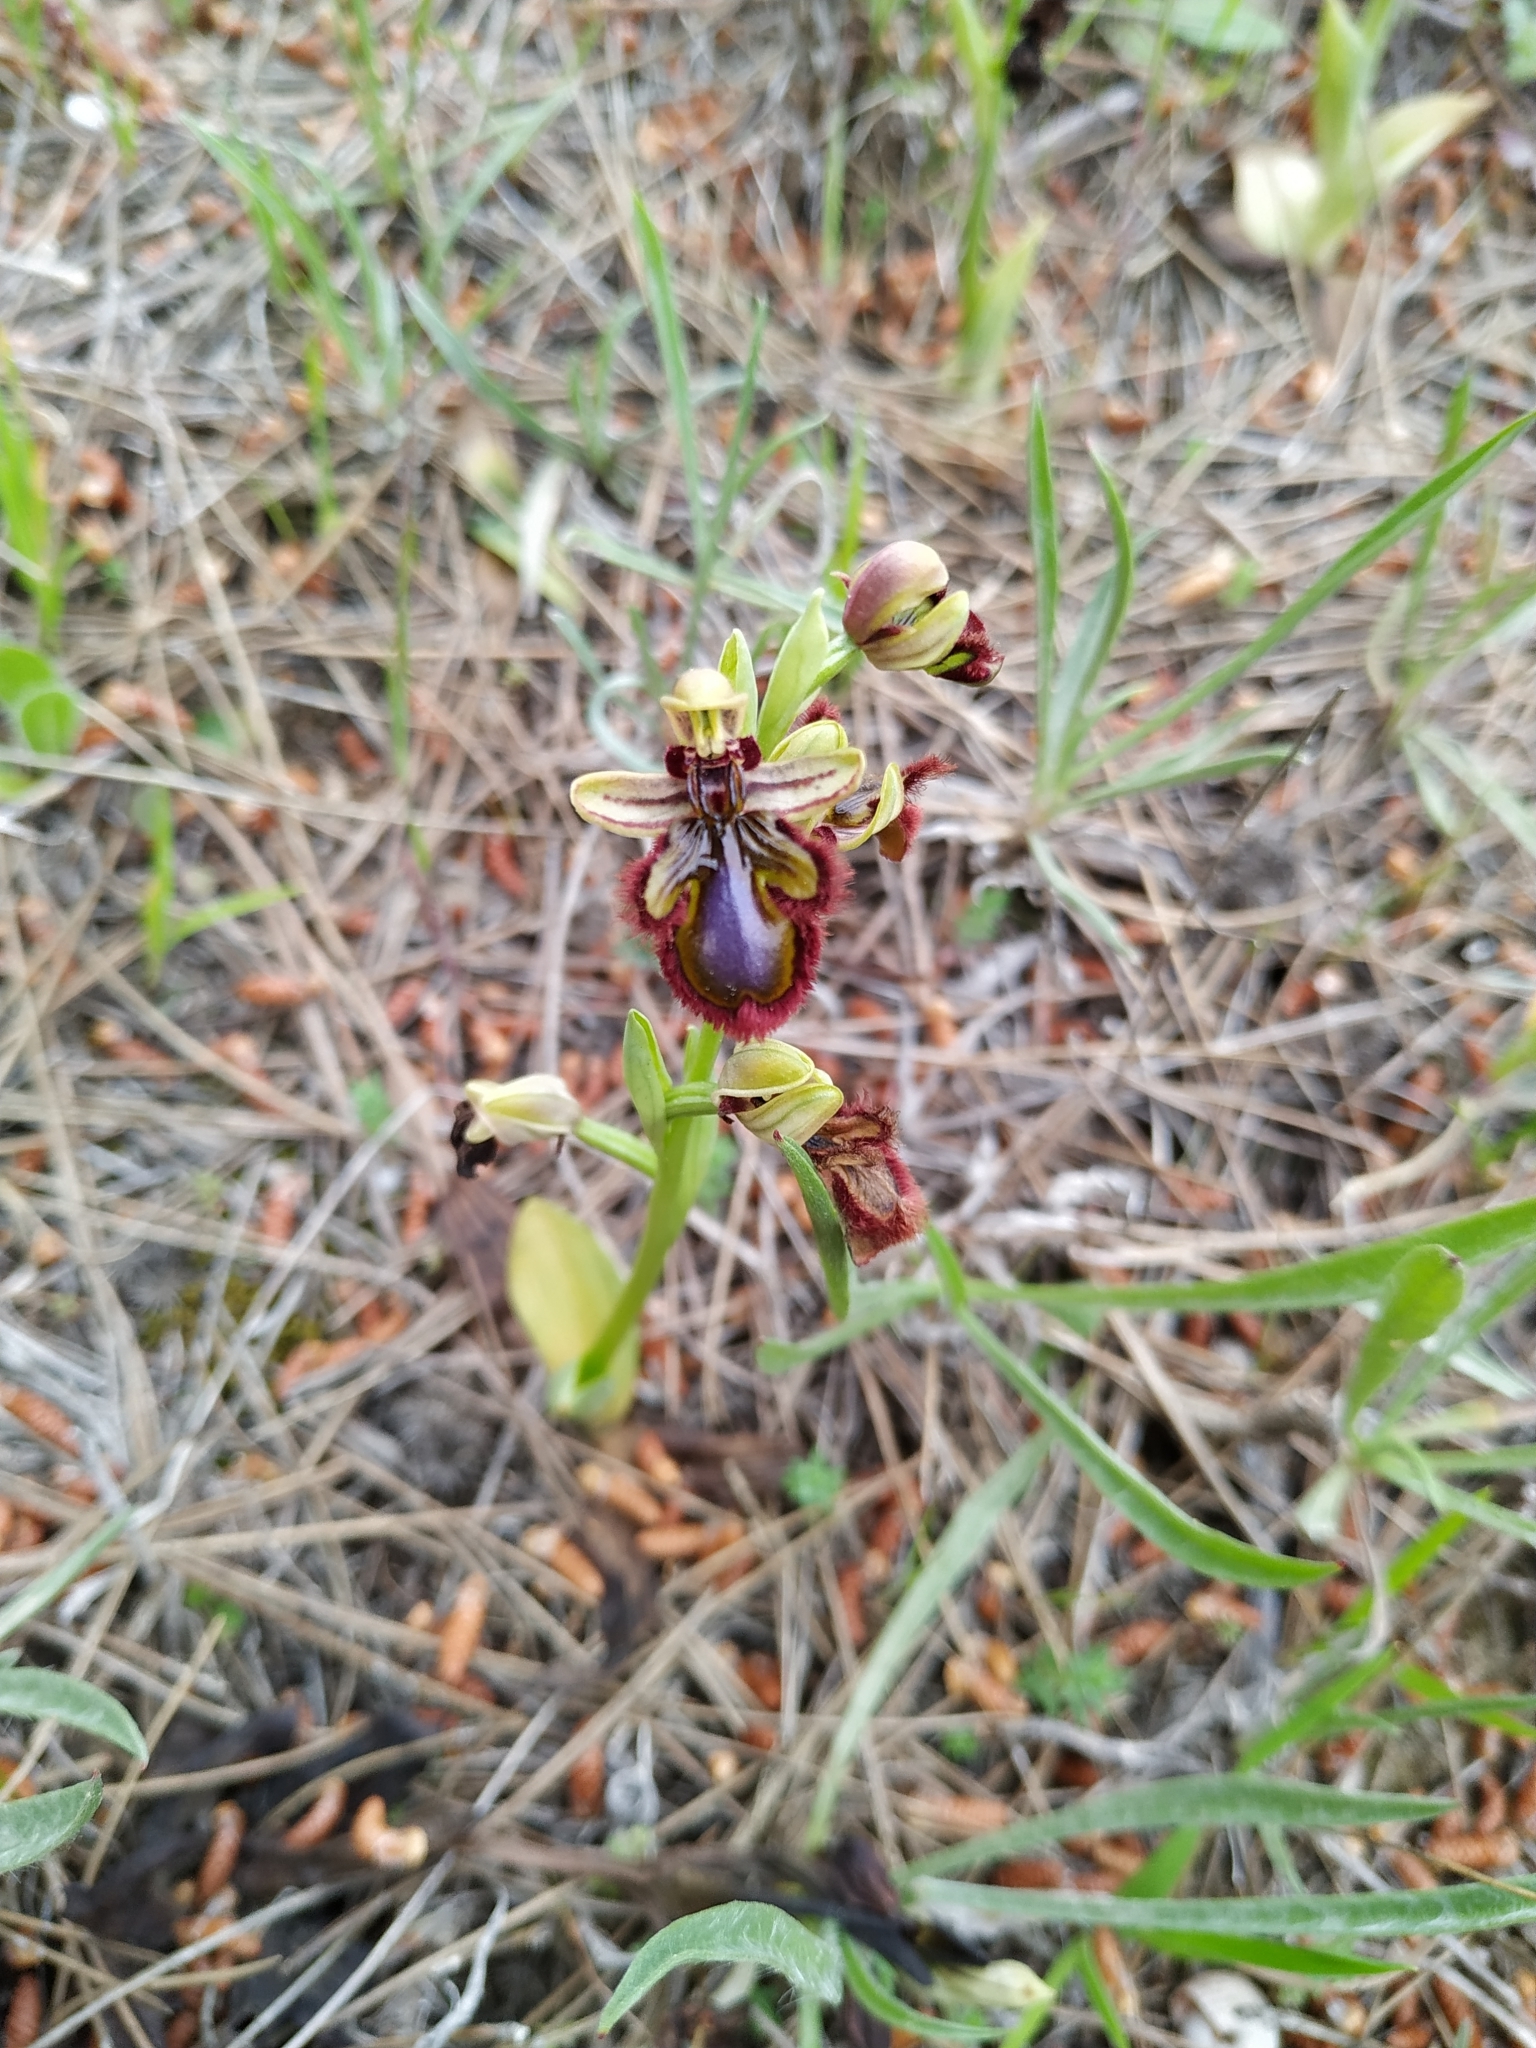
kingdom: Plantae
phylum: Tracheophyta
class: Liliopsida
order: Asparagales
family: Orchidaceae
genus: Ophrys
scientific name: Ophrys speculum
